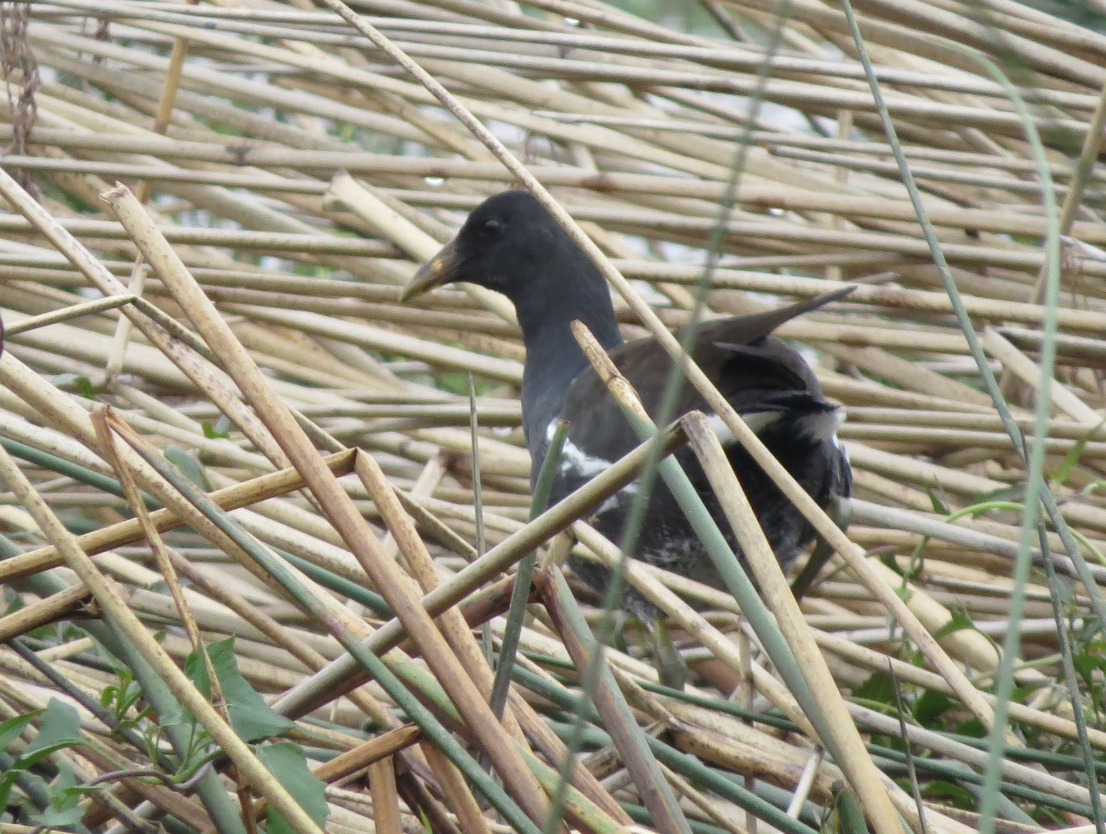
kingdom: Animalia
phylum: Chordata
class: Aves
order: Gruiformes
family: Rallidae
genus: Gallinula
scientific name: Gallinula chloropus
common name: Common moorhen
